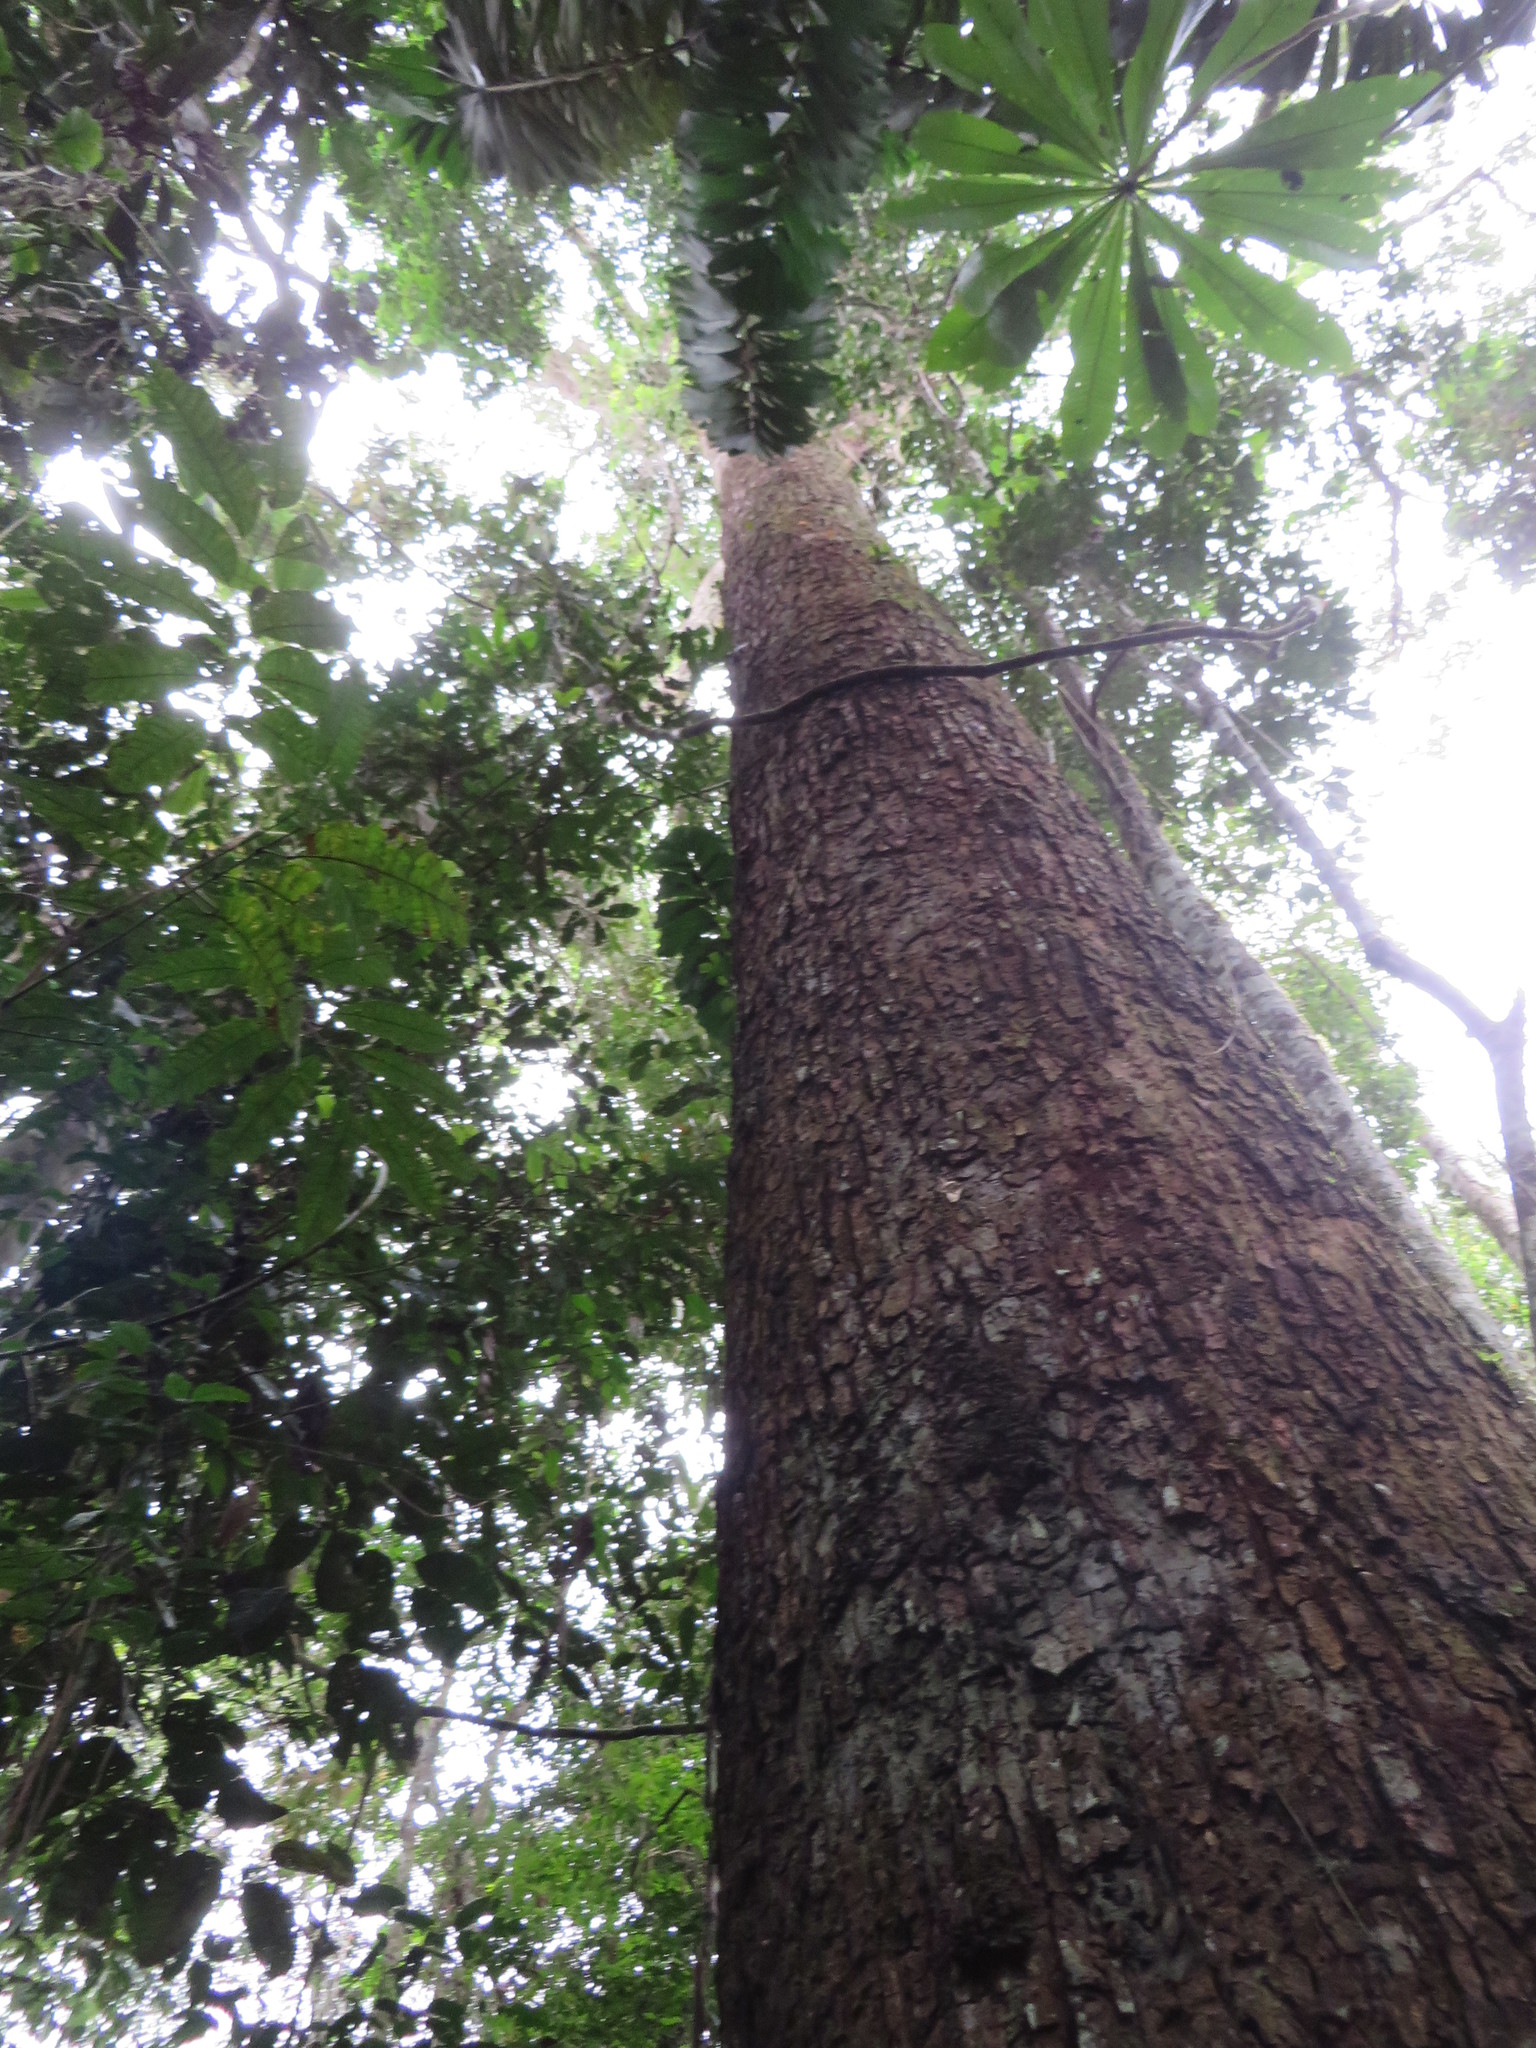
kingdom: Plantae
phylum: Tracheophyta
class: Magnoliopsida
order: Fabales
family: Fabaceae
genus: Cedrelinga
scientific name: Cedrelinga cateniformis
